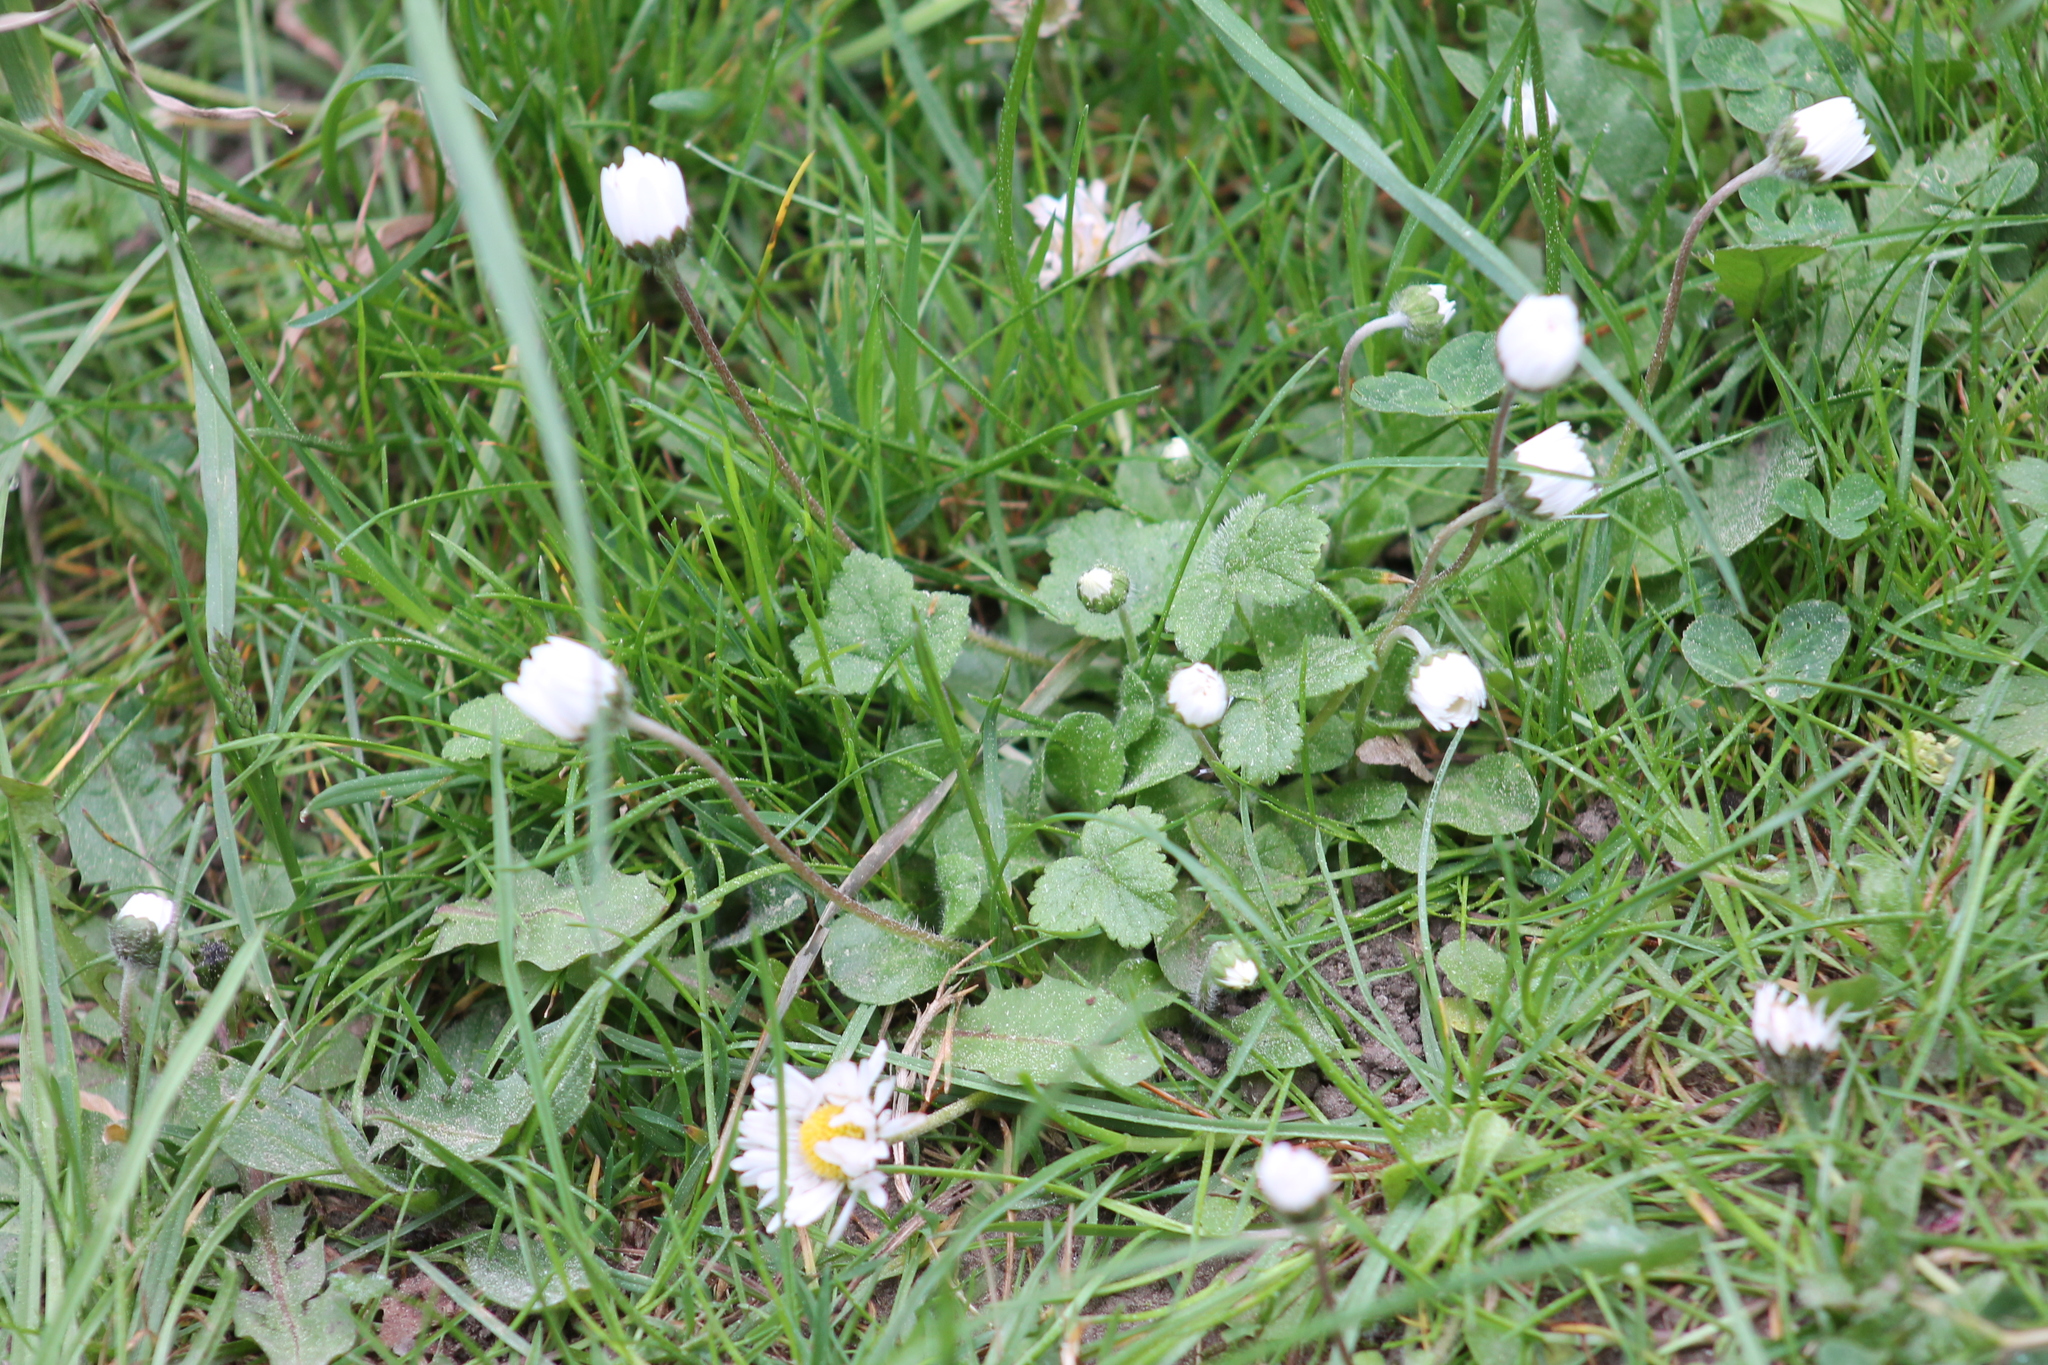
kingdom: Plantae
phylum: Tracheophyta
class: Magnoliopsida
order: Asterales
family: Asteraceae
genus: Bellis
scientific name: Bellis perennis
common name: Lawndaisy
